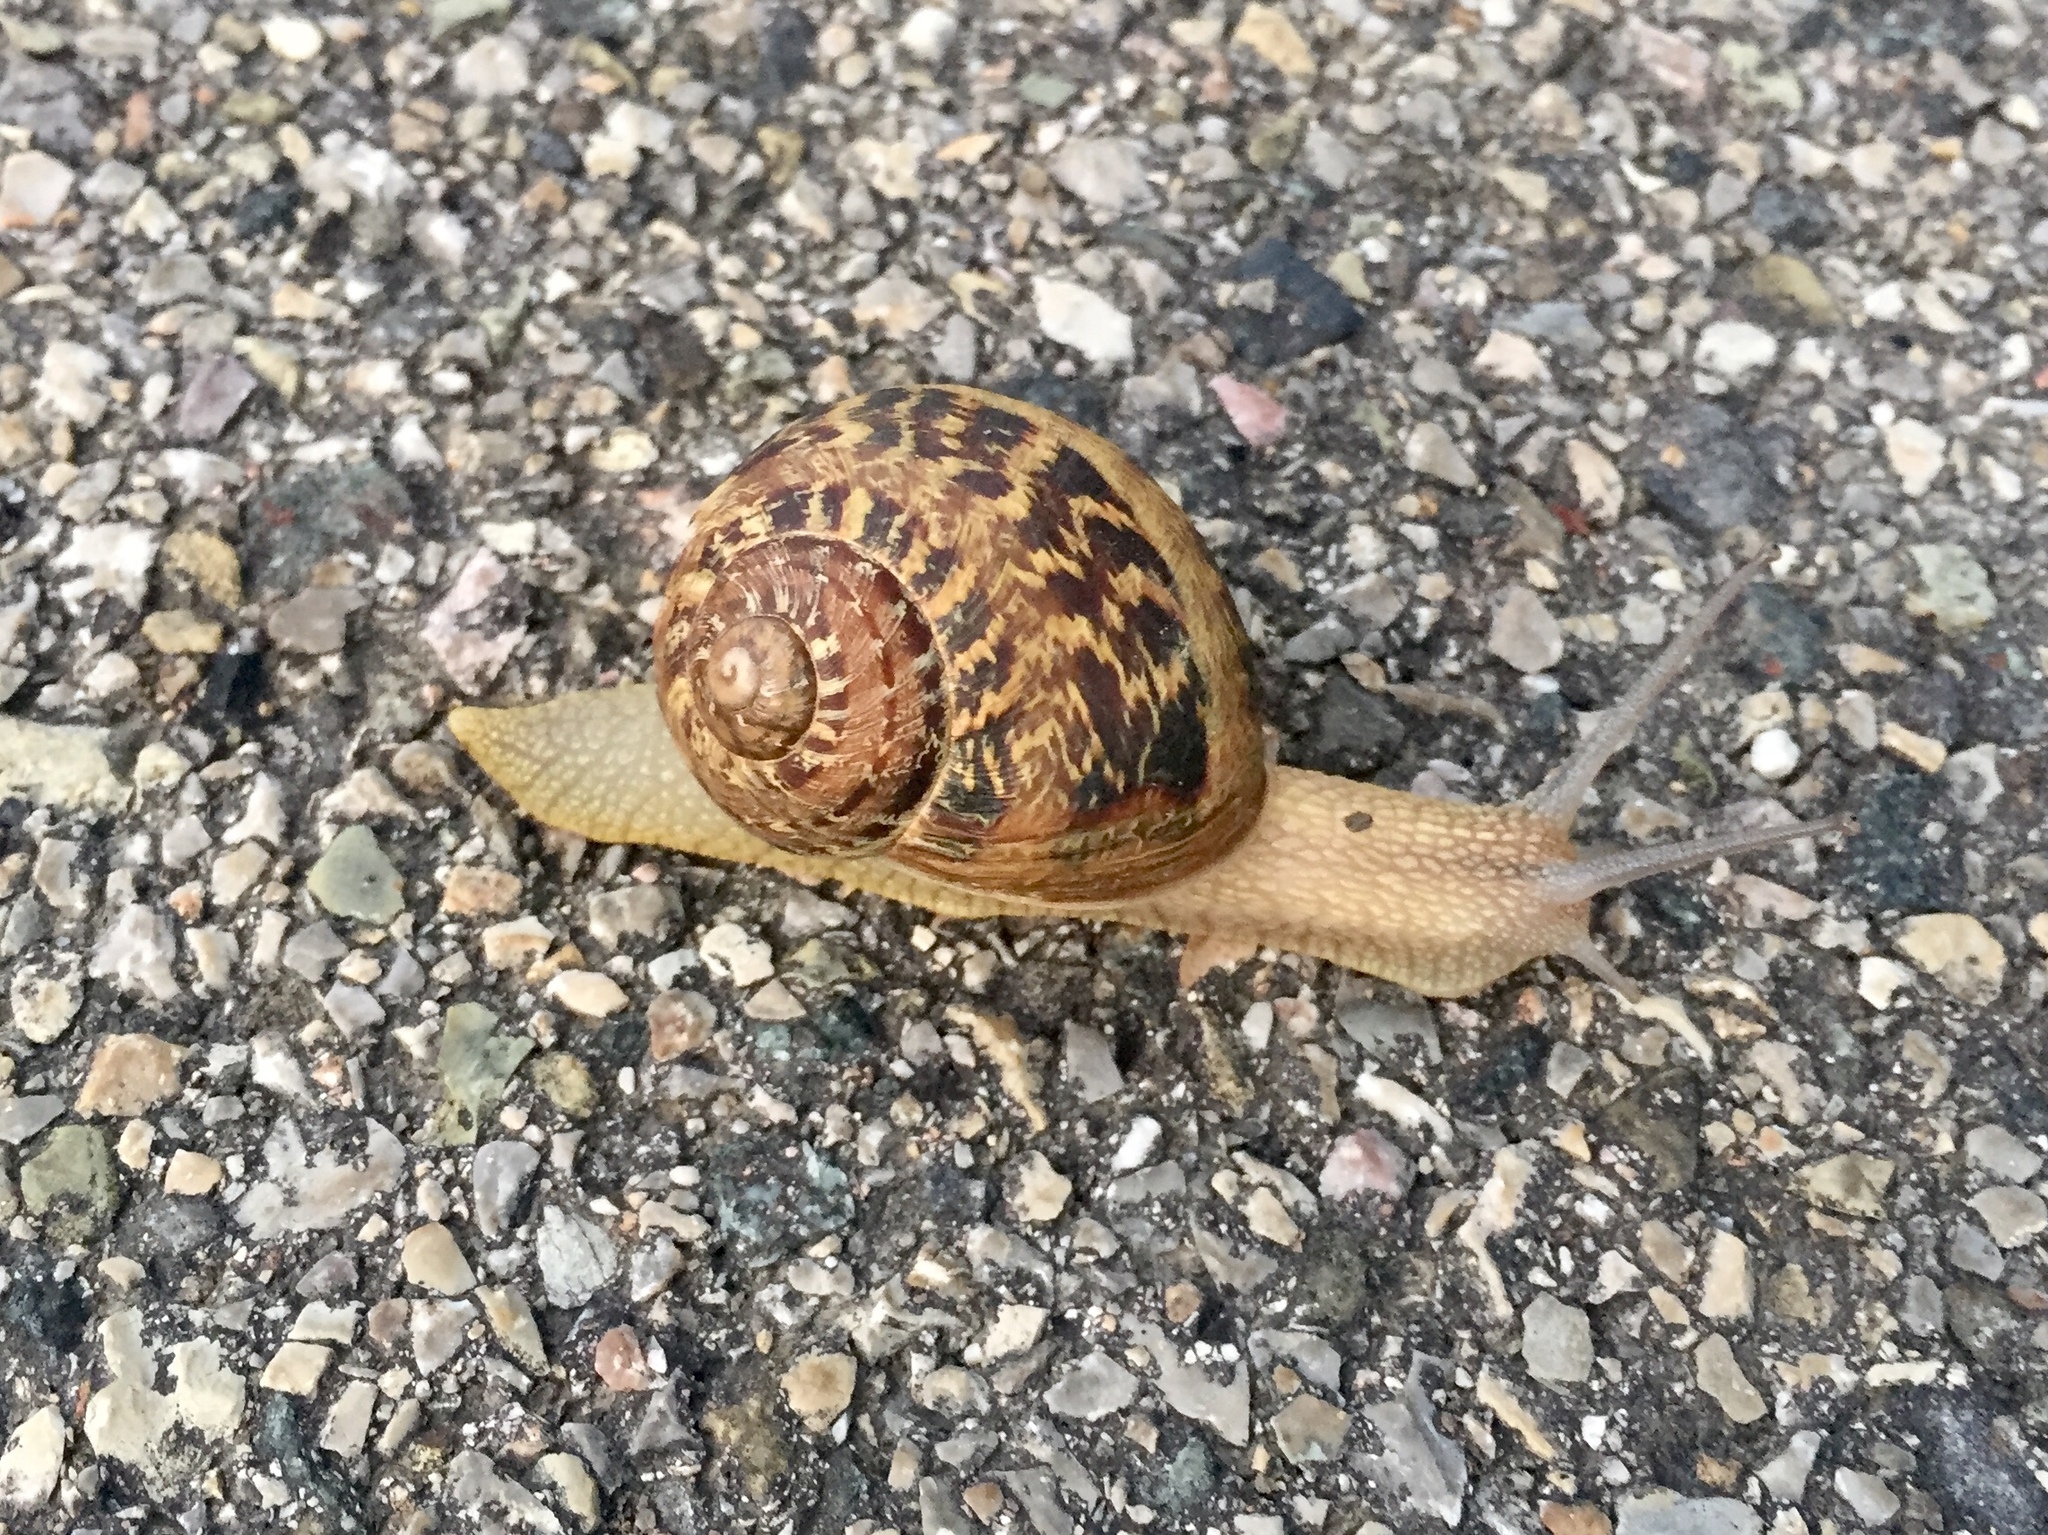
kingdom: Animalia
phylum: Mollusca
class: Gastropoda
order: Stylommatophora
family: Helicidae
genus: Cornu
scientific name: Cornu aspersum
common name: Brown garden snail
